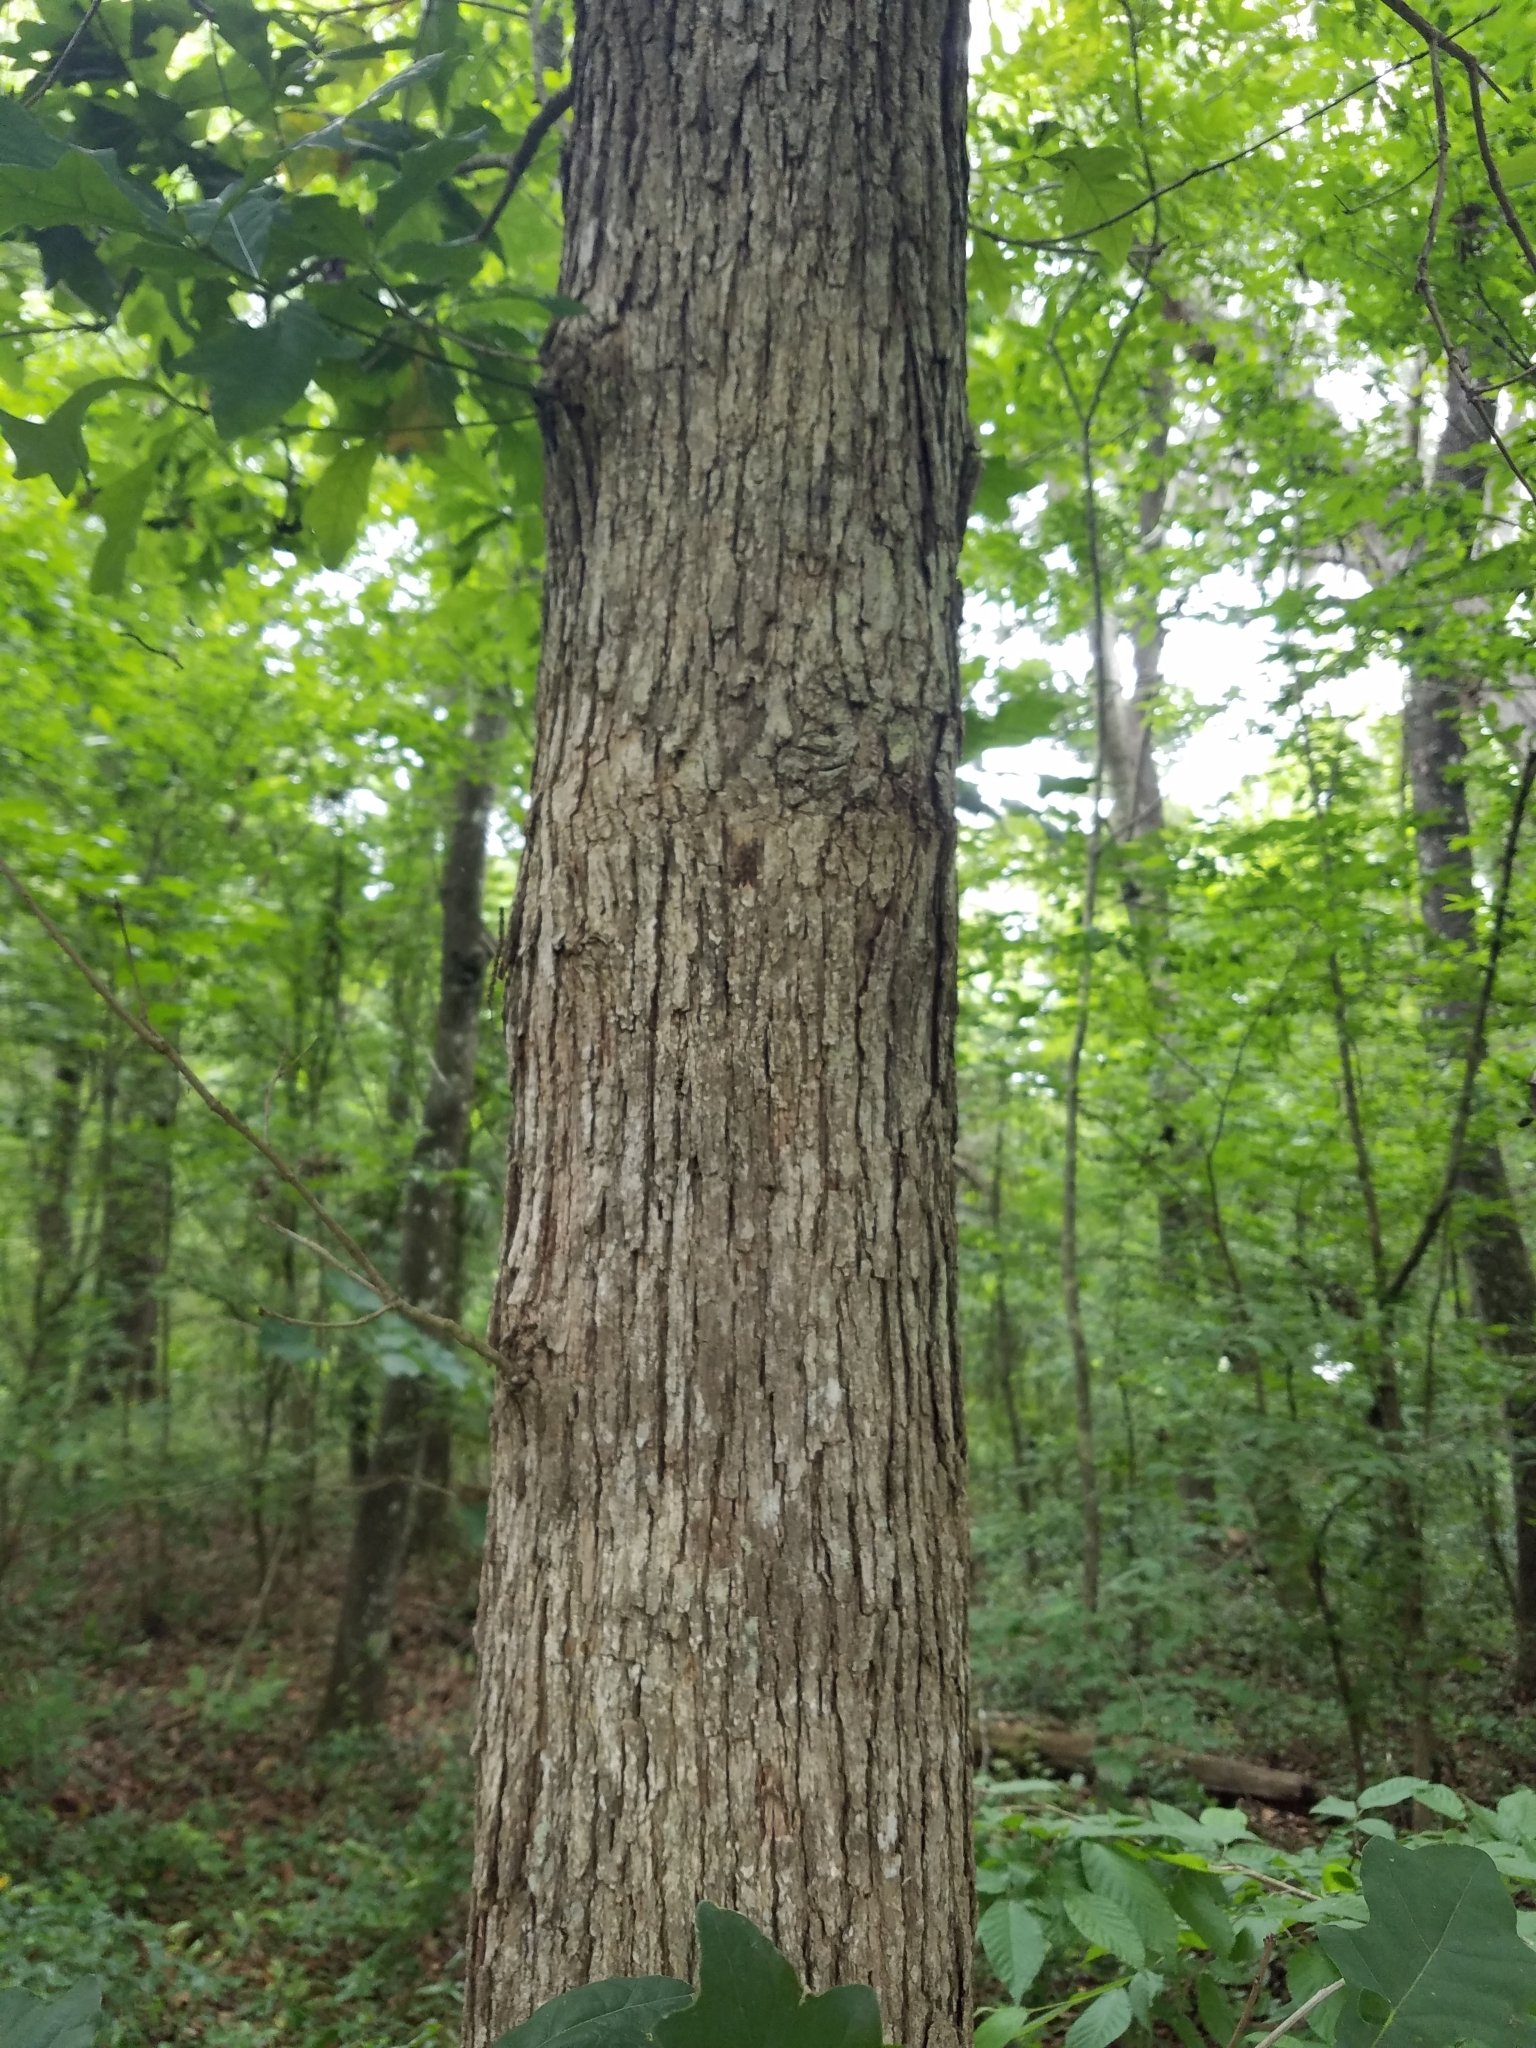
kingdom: Plantae
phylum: Tracheophyta
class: Magnoliopsida
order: Fagales
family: Fagaceae
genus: Quercus
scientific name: Quercus austrina
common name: Bastard white oak
